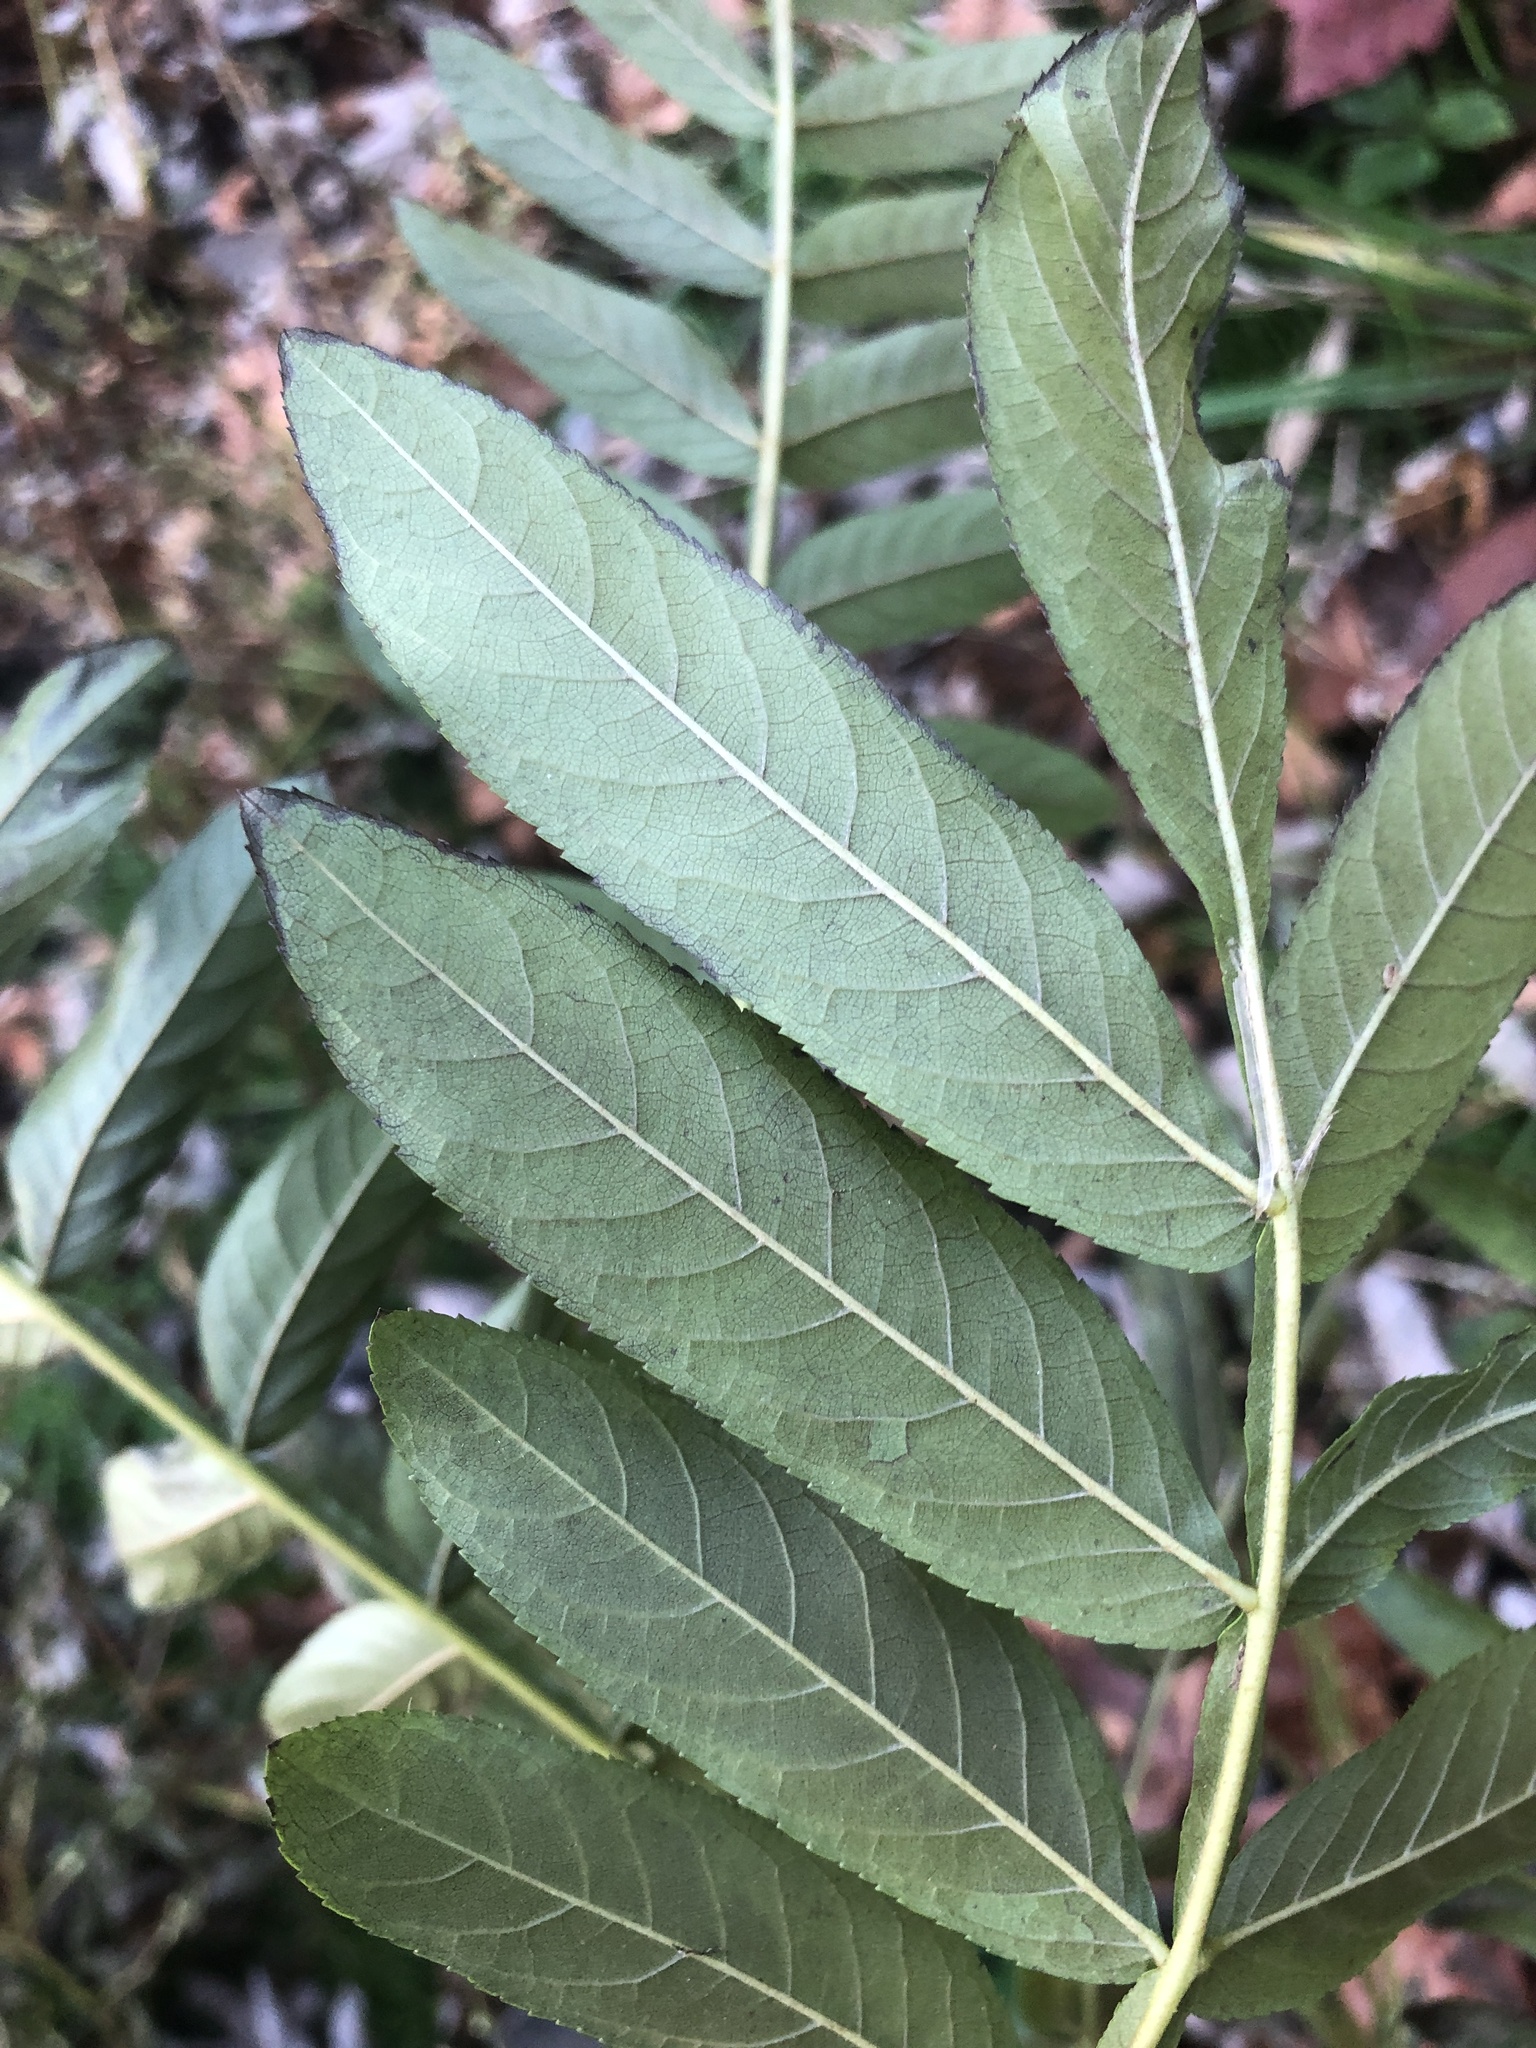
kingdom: Plantae
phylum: Tracheophyta
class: Magnoliopsida
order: Fagales
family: Juglandaceae
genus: Pterocarya
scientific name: Pterocarya stenoptera
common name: Chinese wingnut
